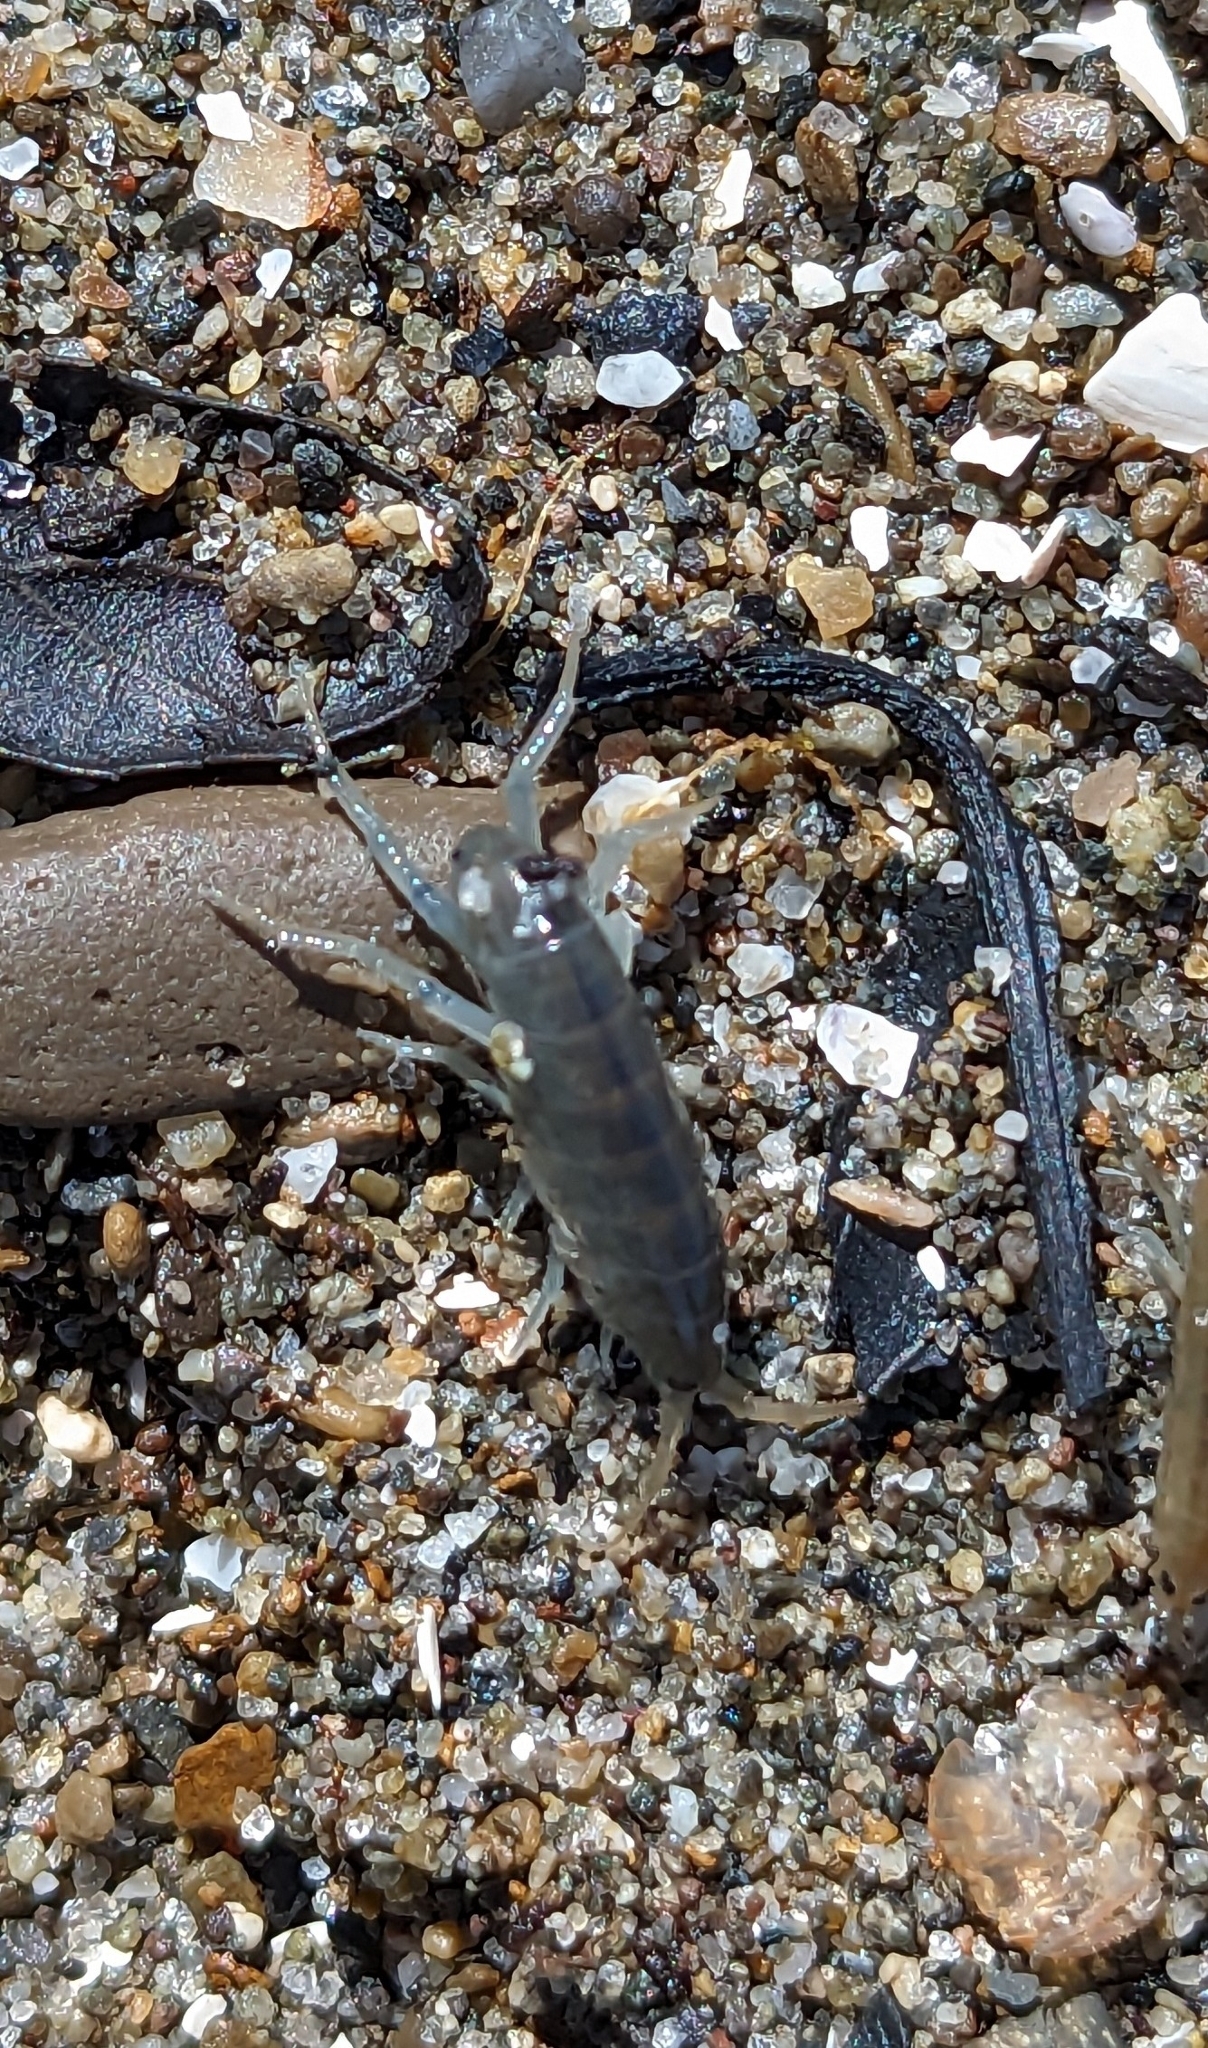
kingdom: Animalia
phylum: Arthropoda
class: Malacostraca
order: Amphipoda
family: Talitridae
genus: Traskorchestia
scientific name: Traskorchestia traskiana
